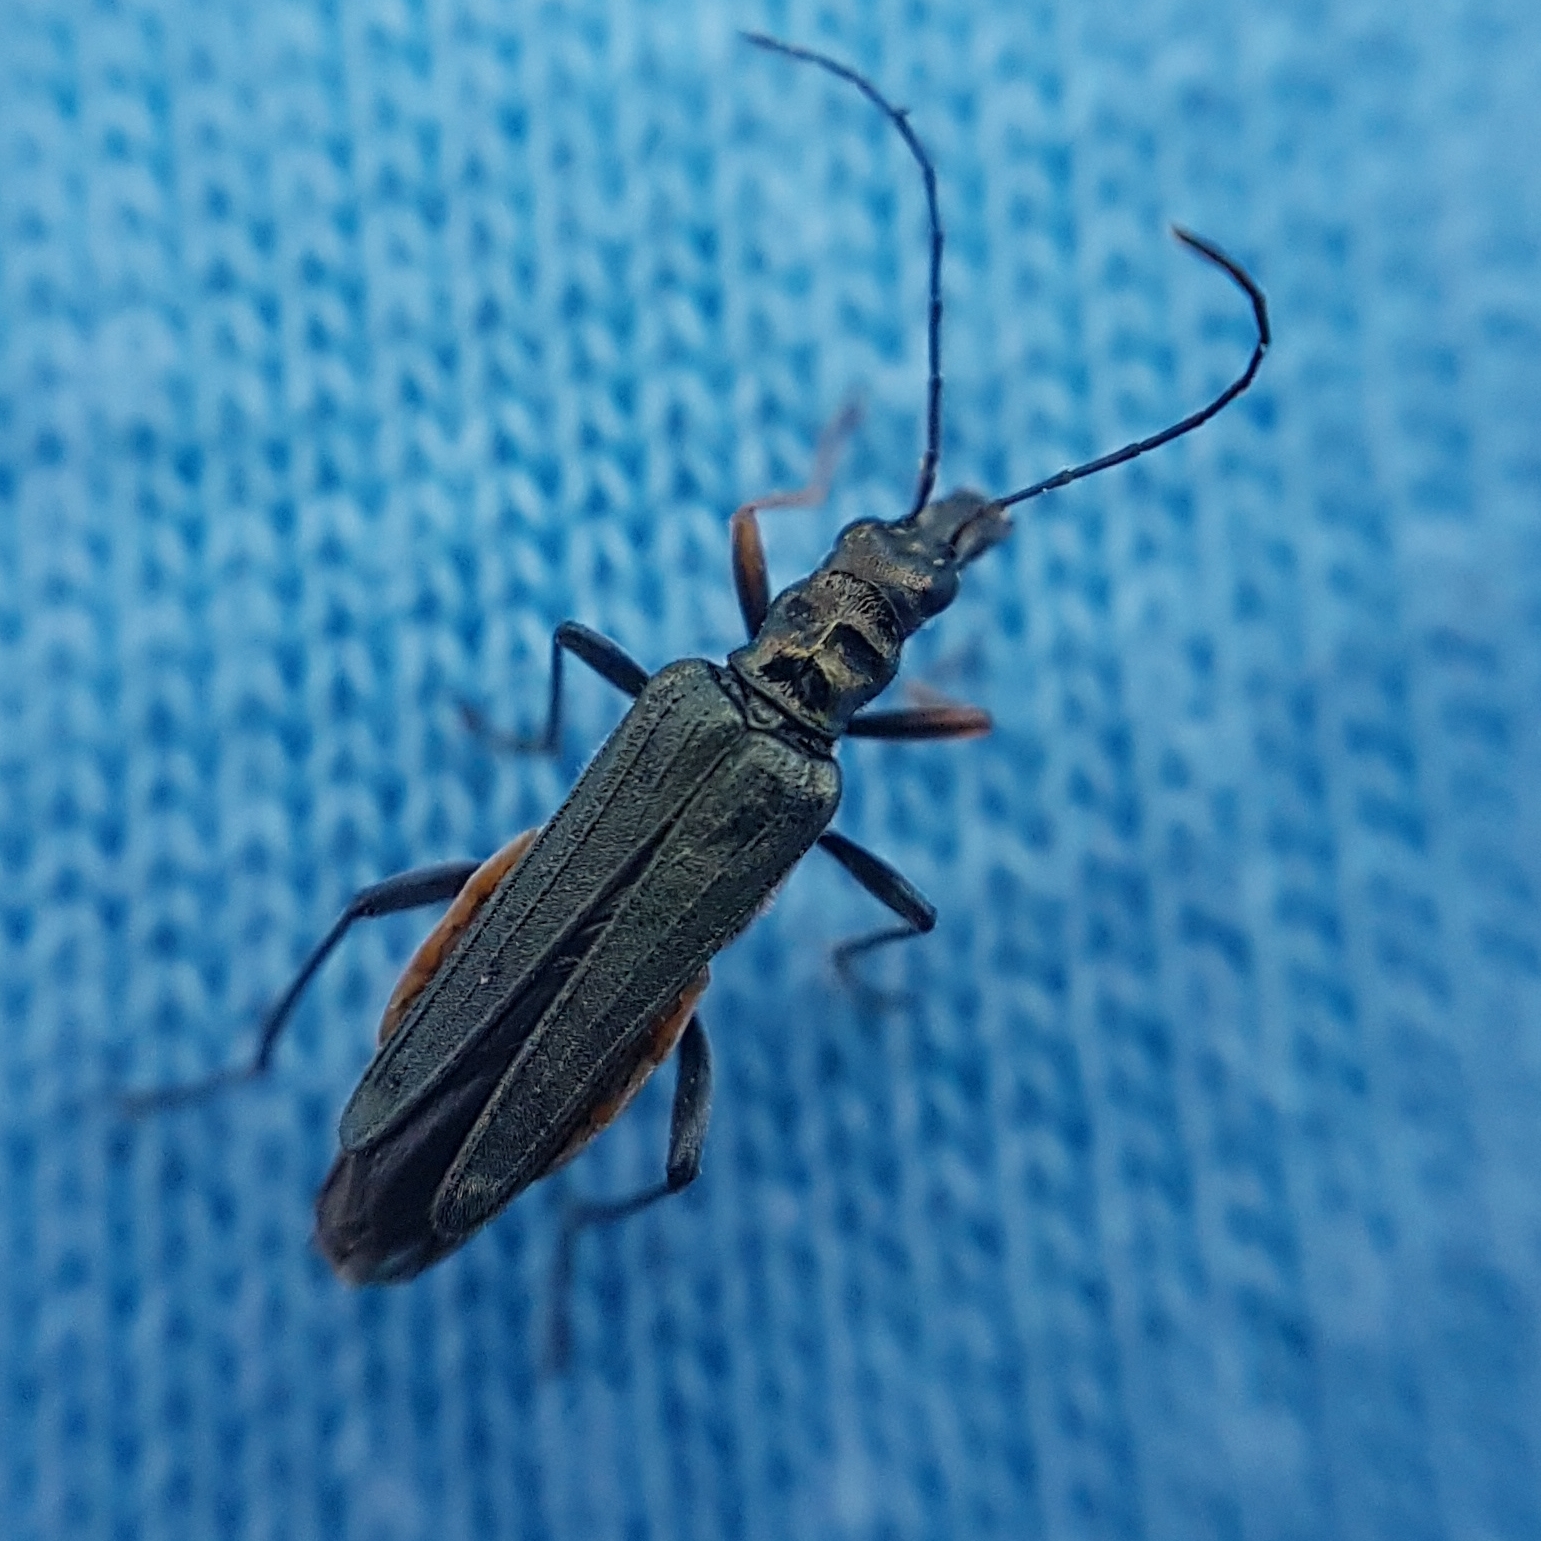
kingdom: Animalia
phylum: Arthropoda
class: Insecta
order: Coleoptera
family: Oedemeridae
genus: Oedemera
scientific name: Oedemera flavipes
